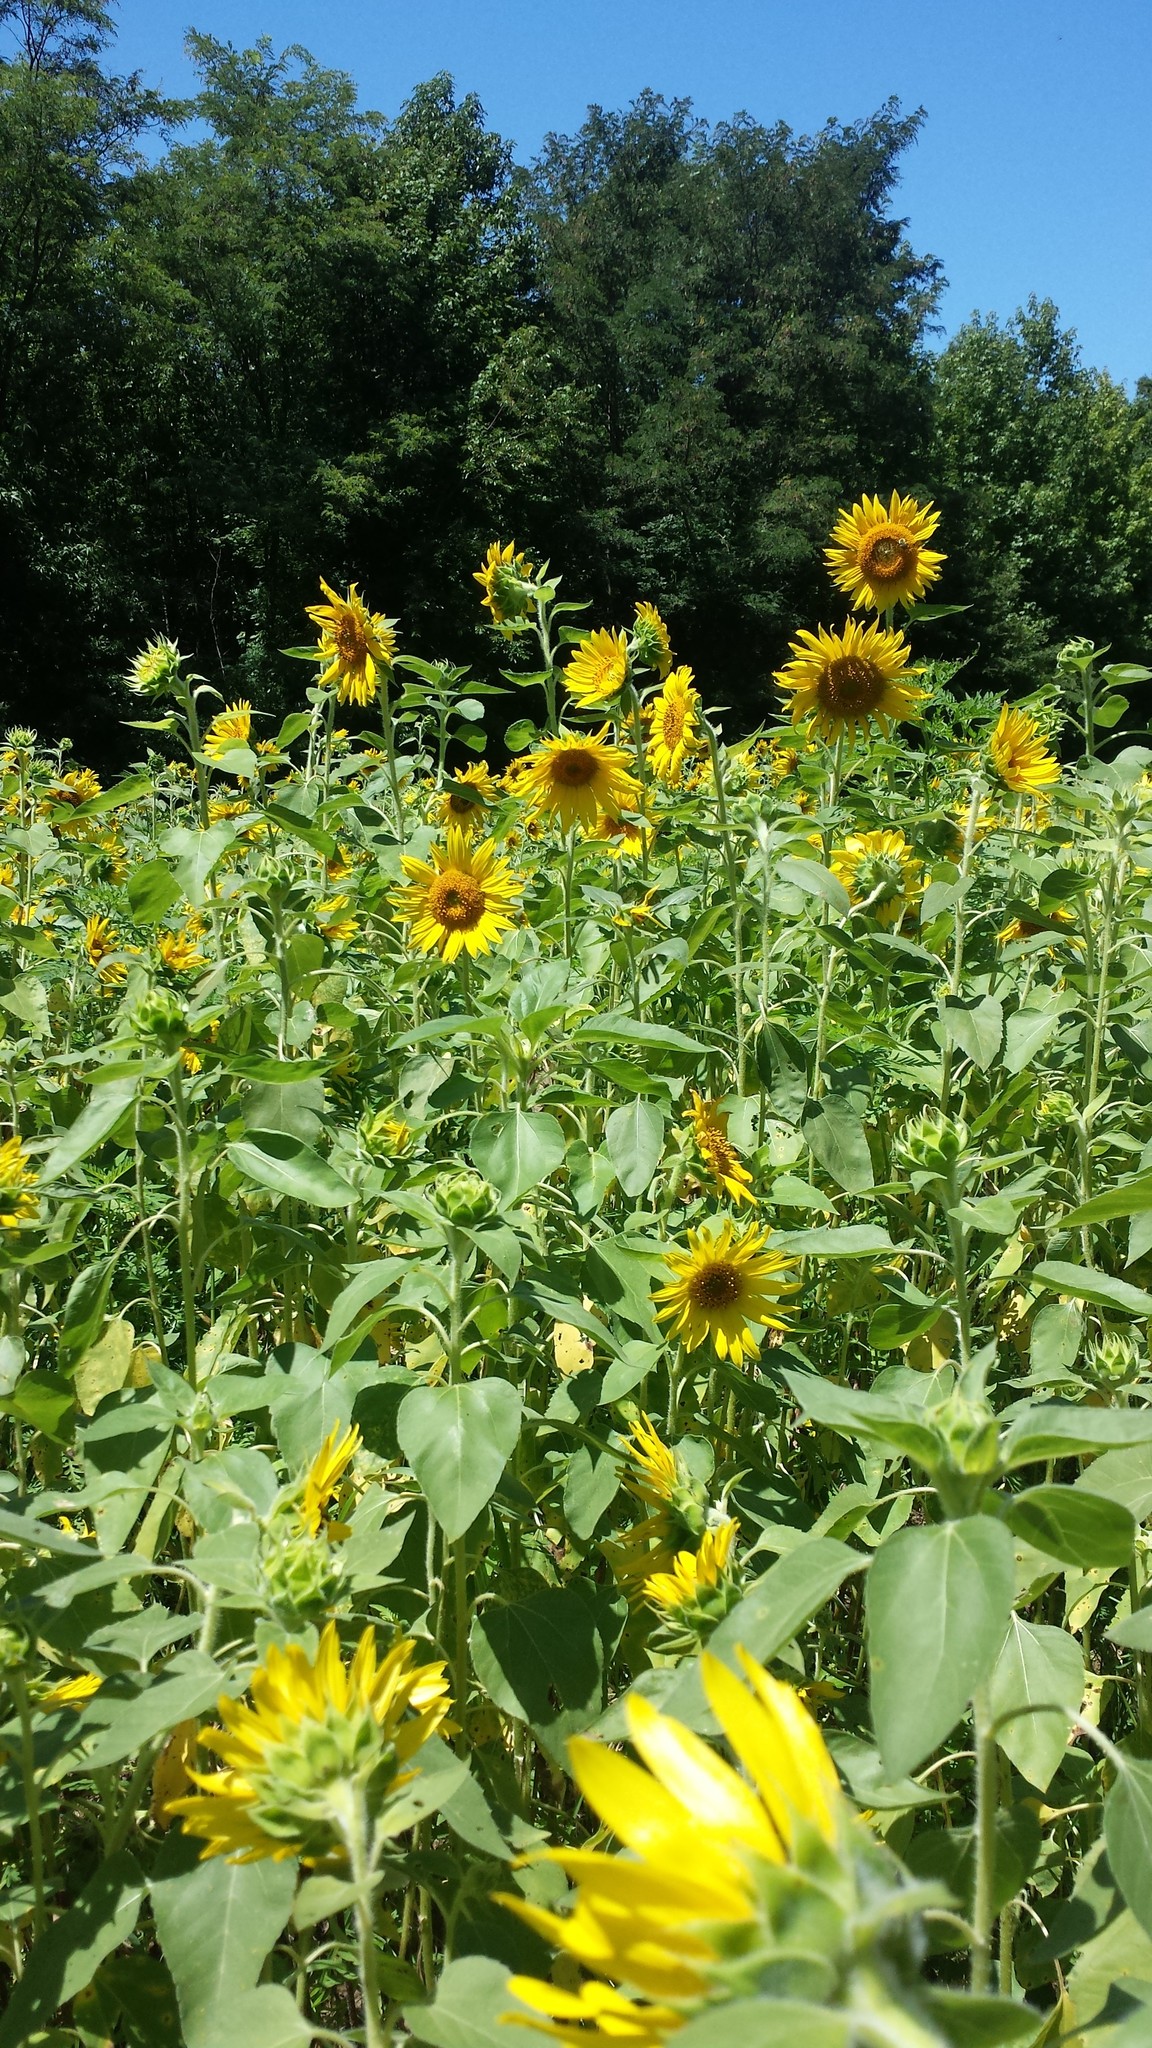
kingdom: Plantae
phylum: Tracheophyta
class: Magnoliopsida
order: Asterales
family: Asteraceae
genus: Helianthus
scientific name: Helianthus annuus
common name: Sunflower
